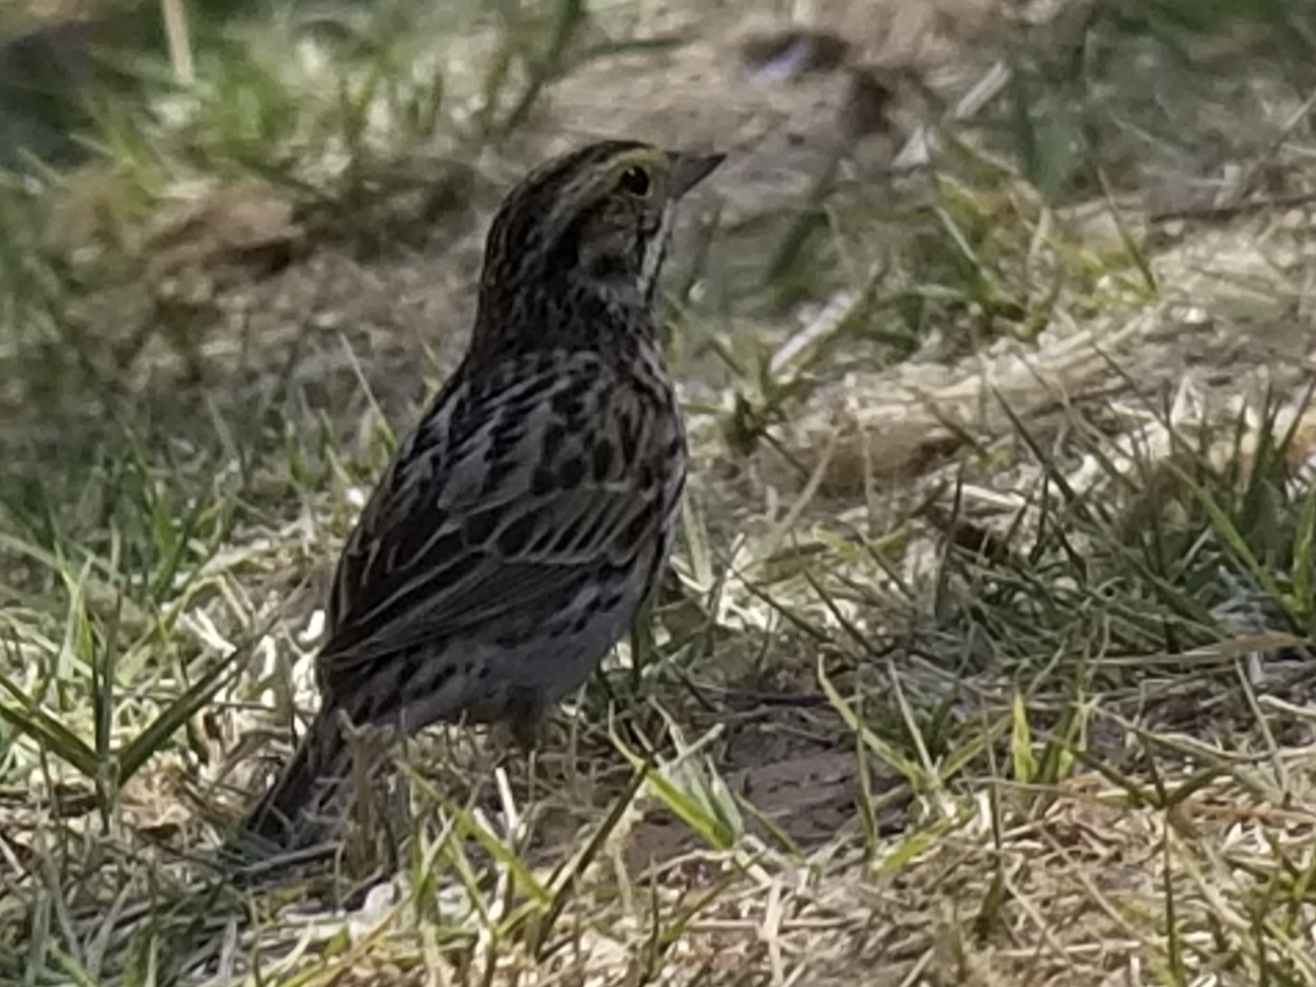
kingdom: Animalia
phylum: Chordata
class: Aves
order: Passeriformes
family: Passerellidae
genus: Passerculus
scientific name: Passerculus sandwichensis
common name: Savannah sparrow
